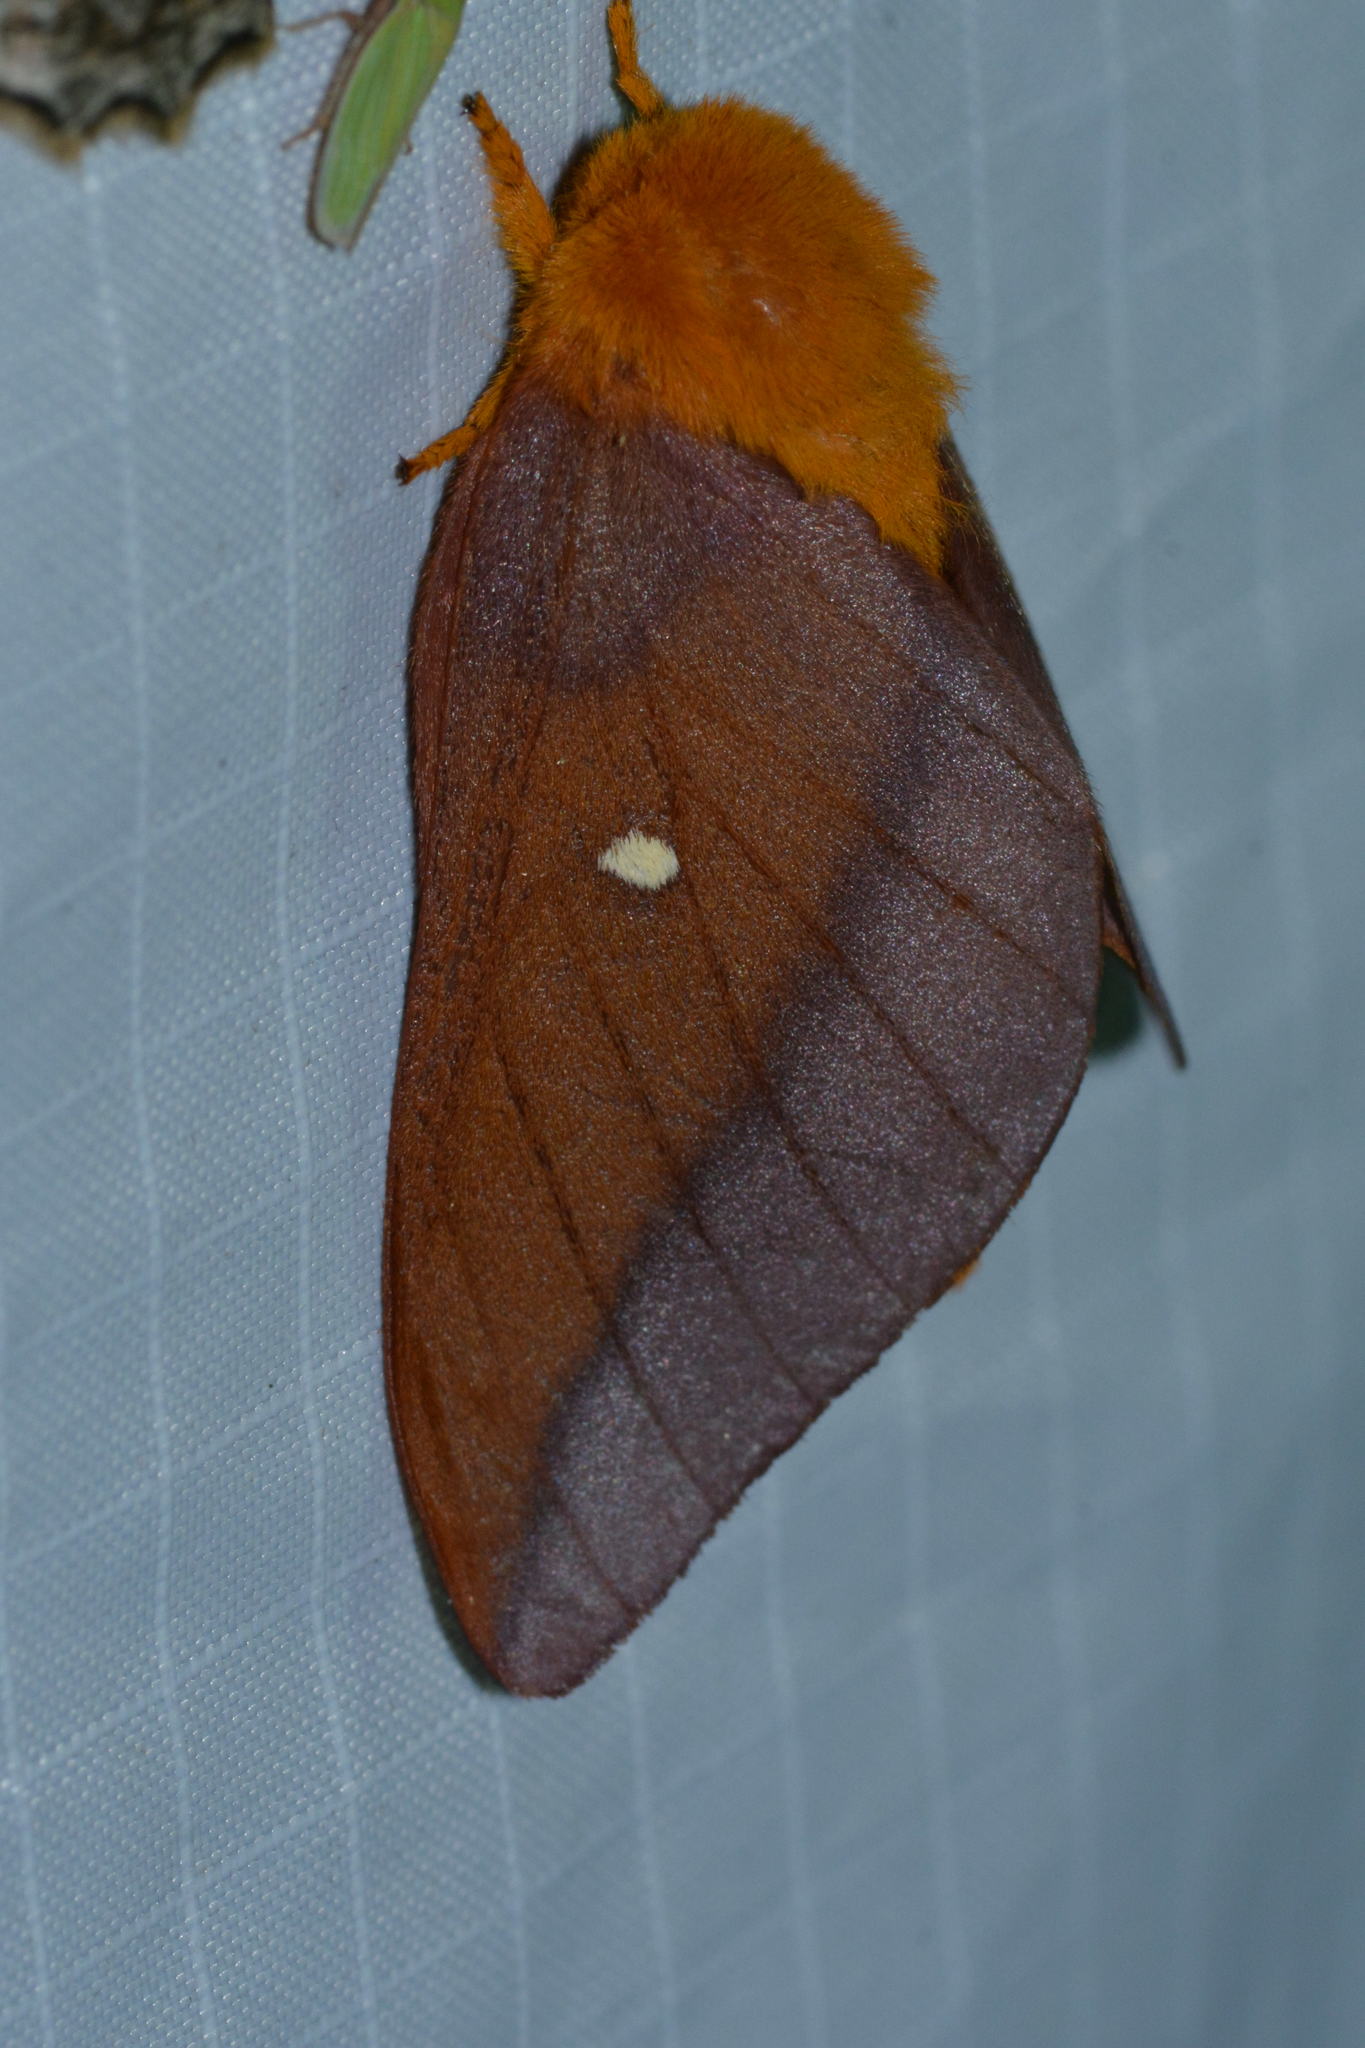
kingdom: Animalia
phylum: Arthropoda
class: Insecta
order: Lepidoptera
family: Saturniidae
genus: Anisota
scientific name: Anisota virginiensis
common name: Pink striped oakworm moth
